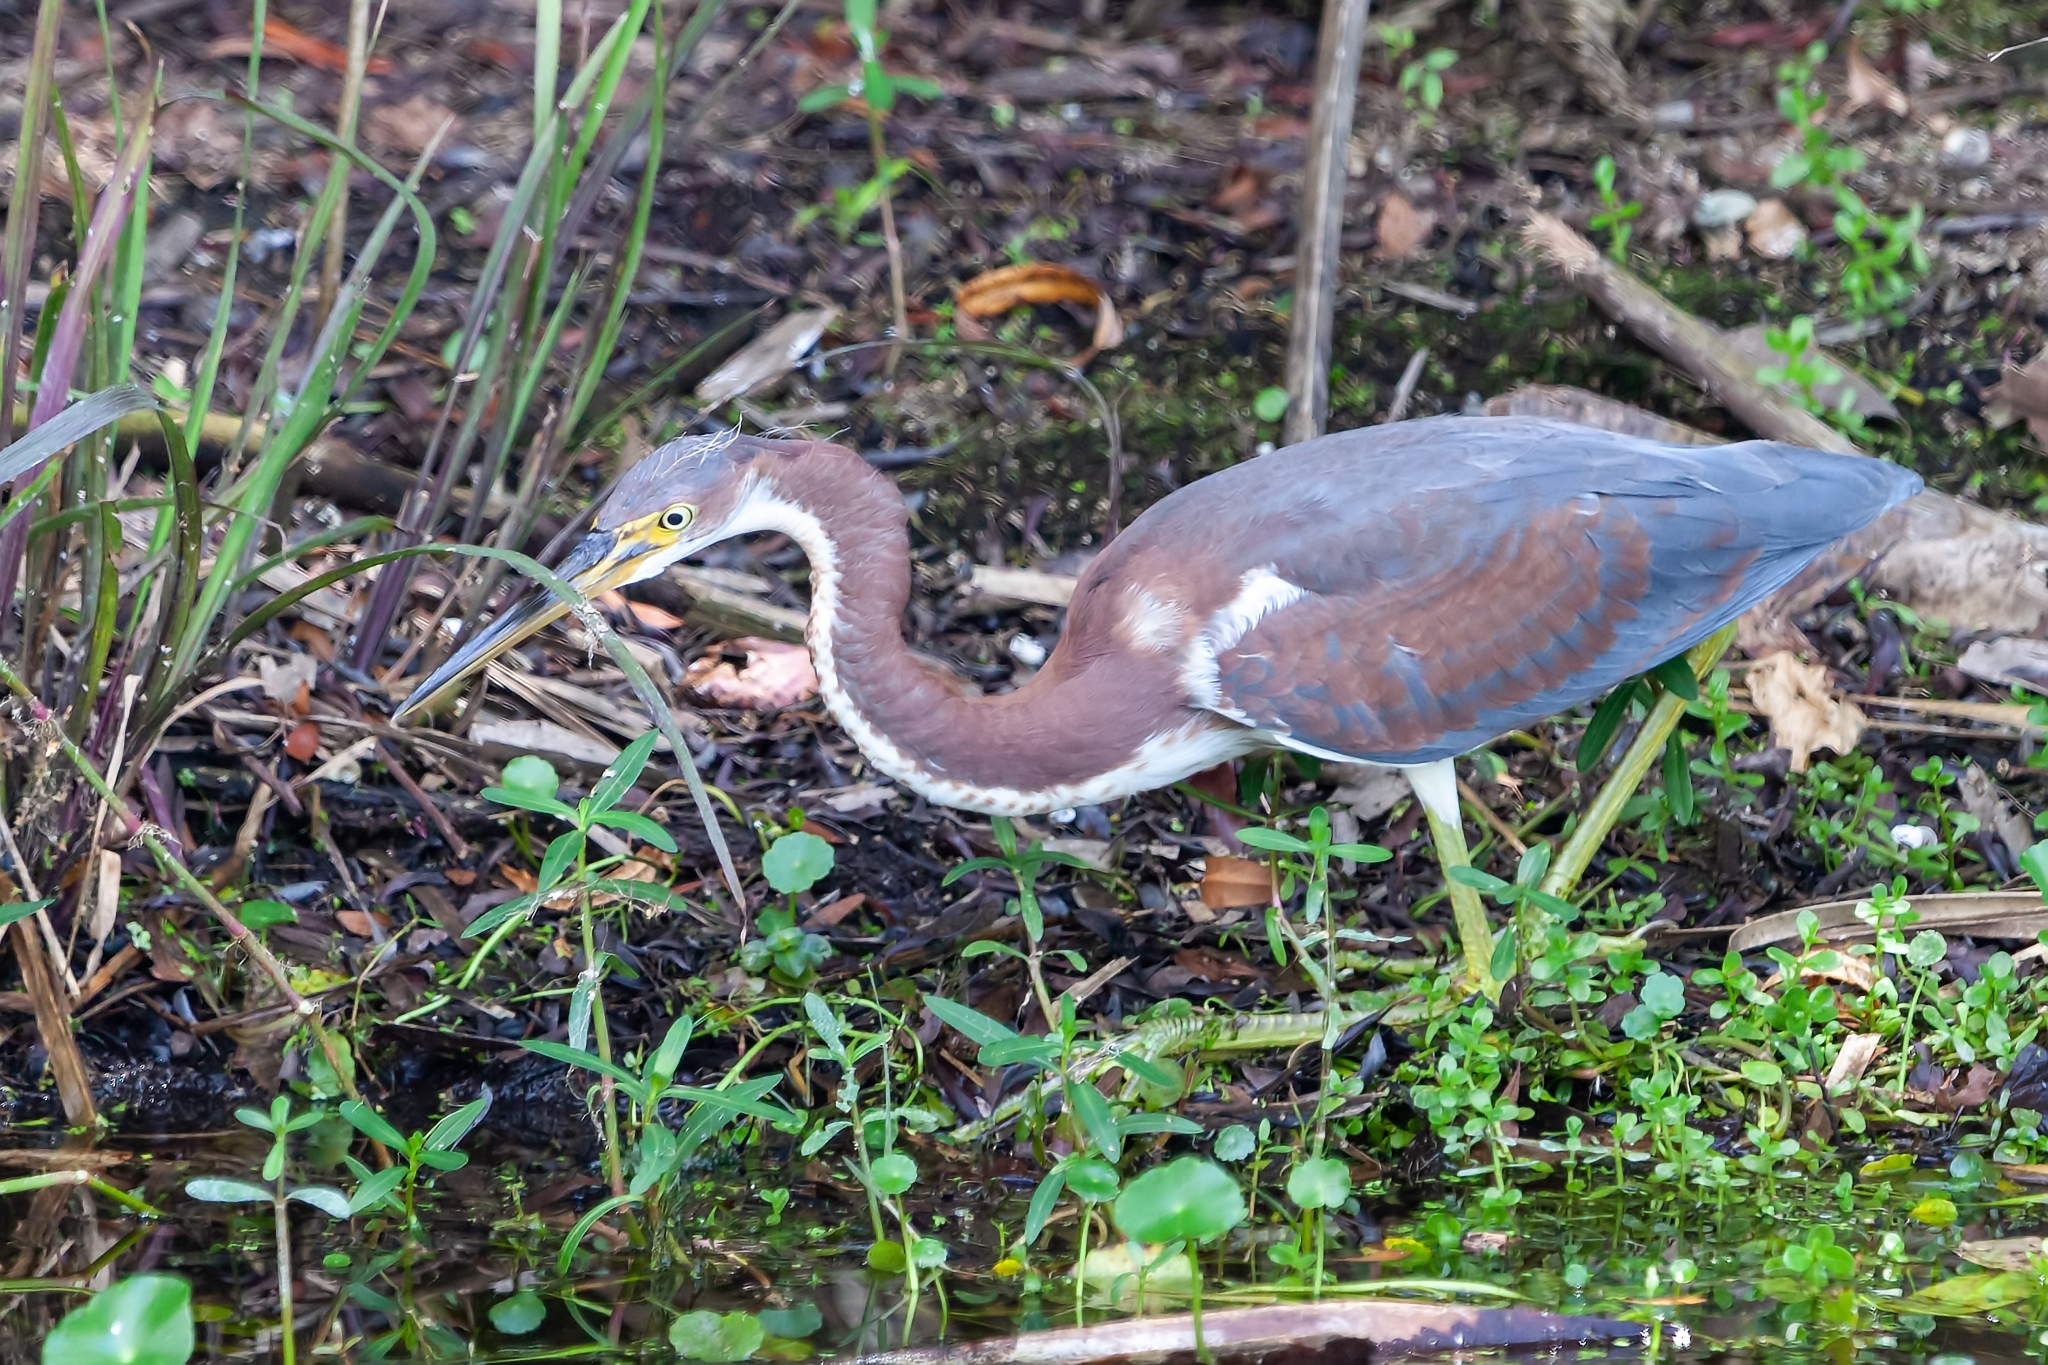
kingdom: Animalia
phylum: Chordata
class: Aves
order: Pelecaniformes
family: Ardeidae
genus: Egretta
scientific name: Egretta tricolor
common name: Tricolored heron
